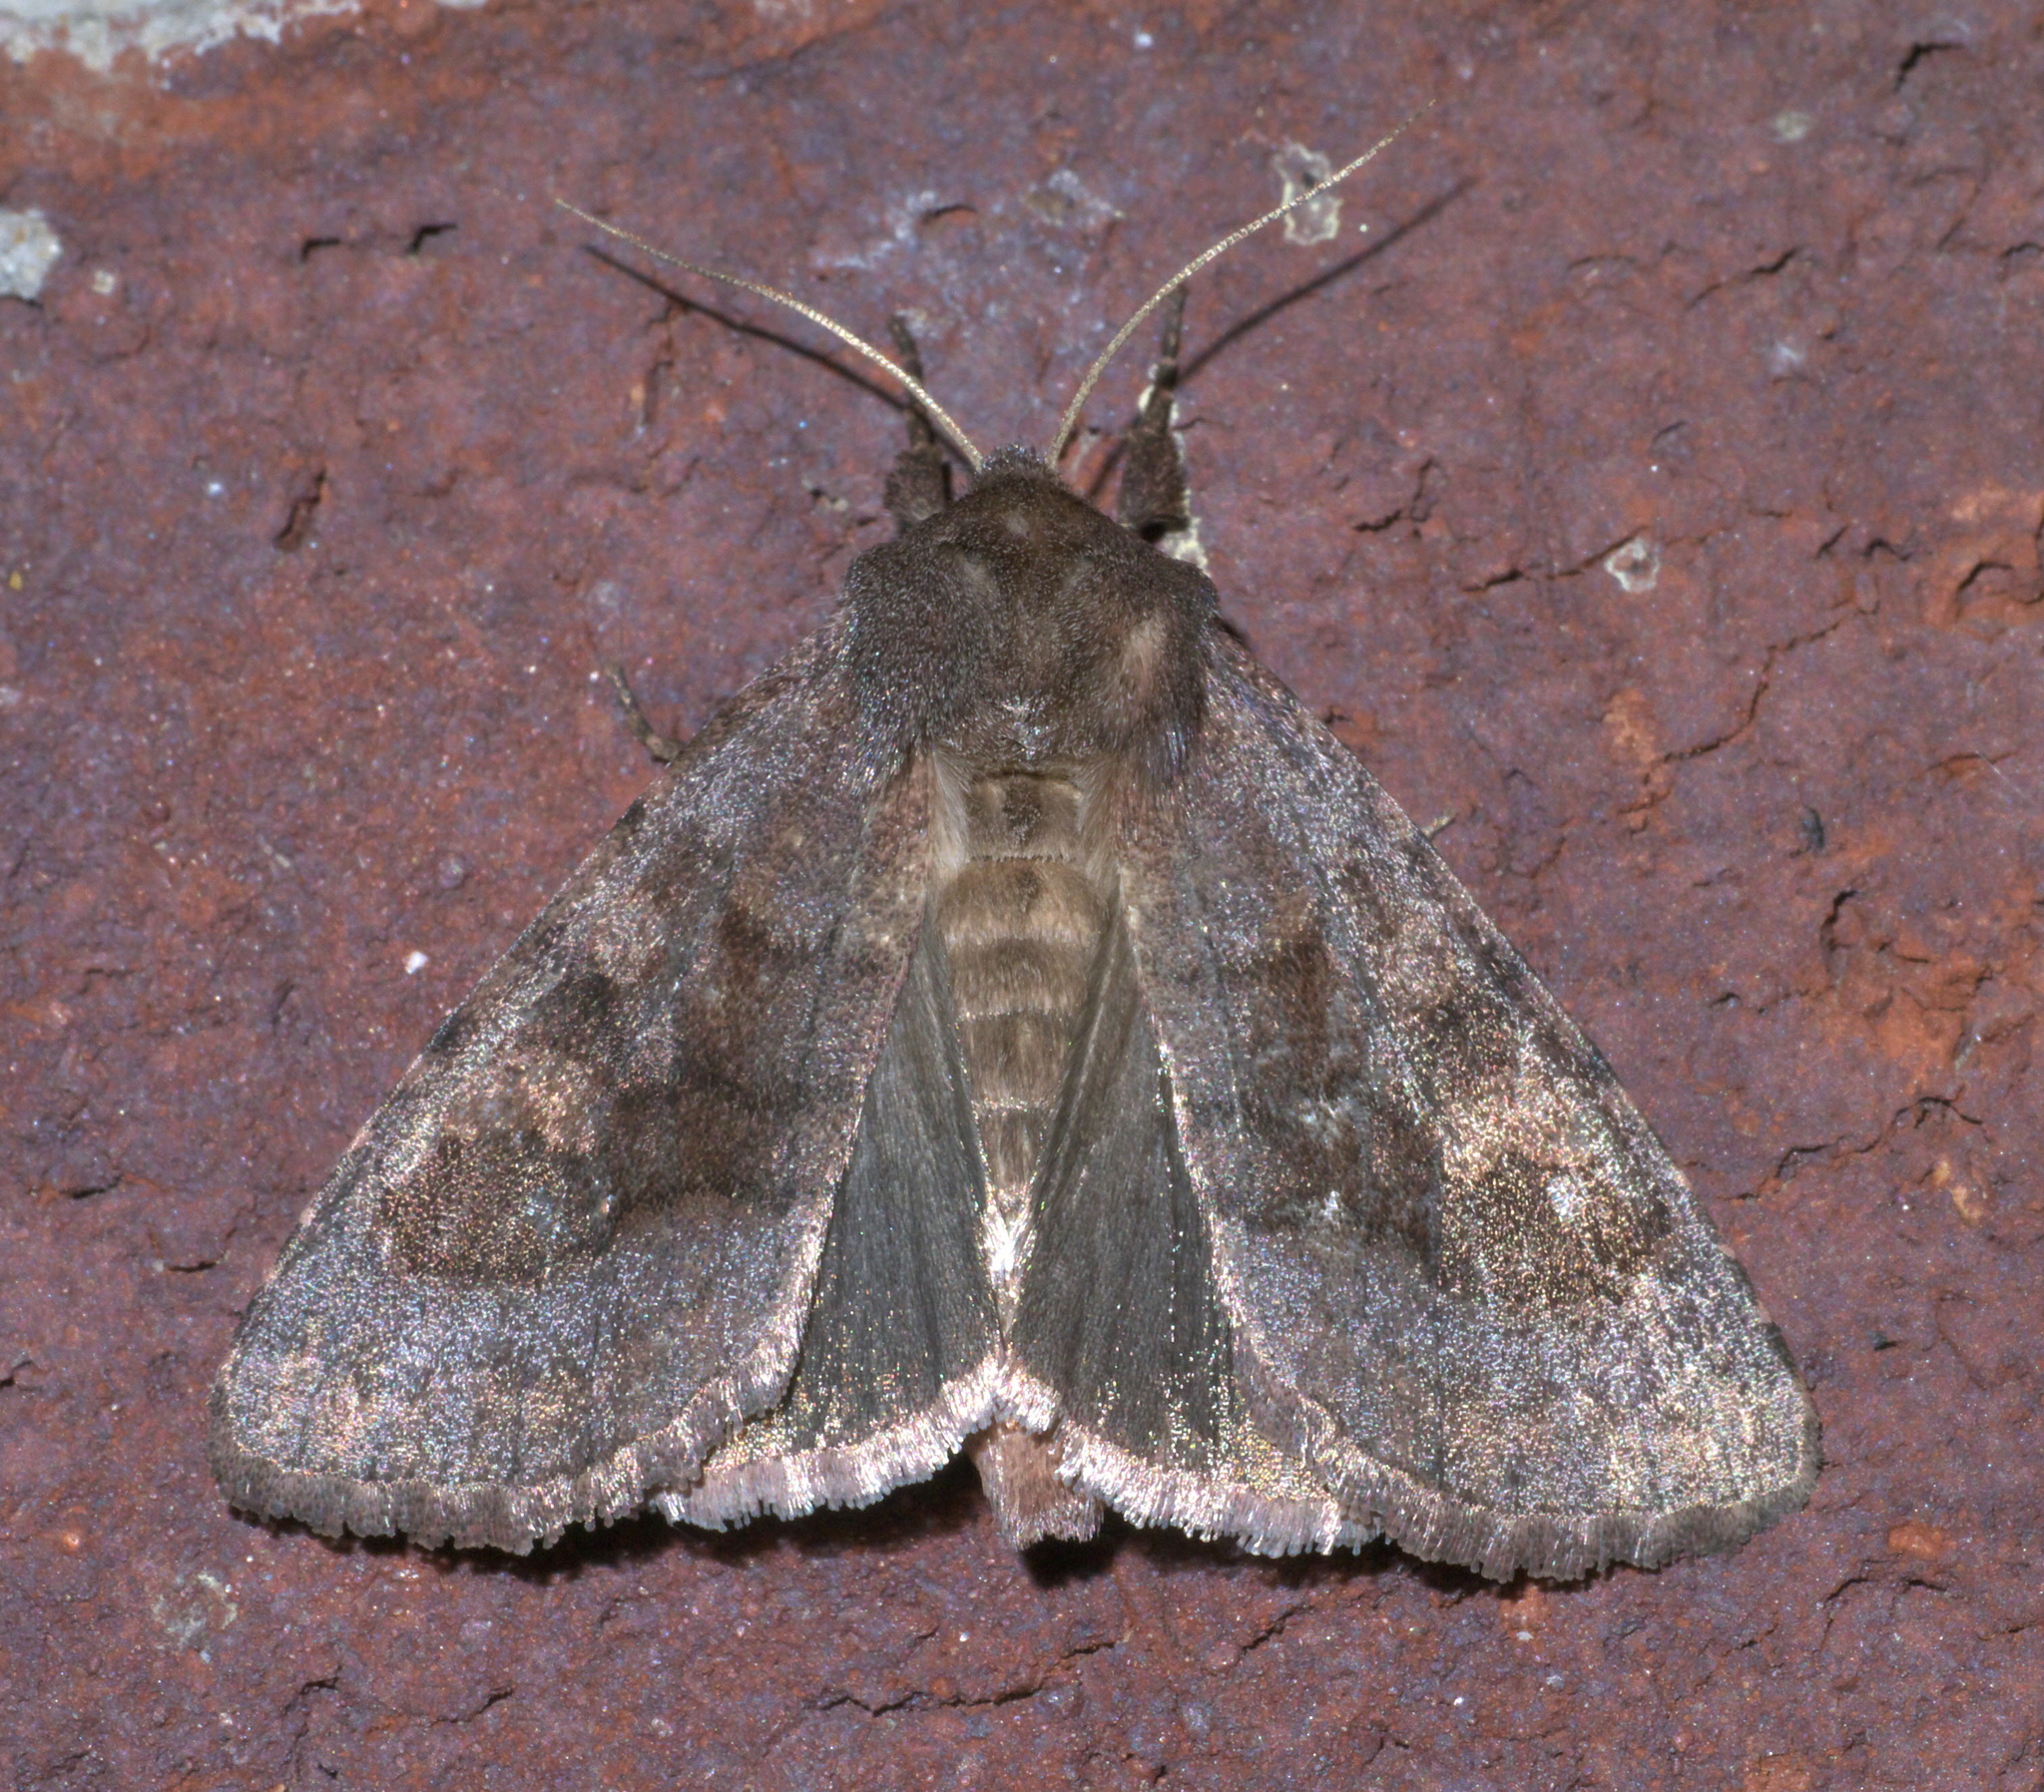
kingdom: Animalia
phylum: Arthropoda
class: Insecta
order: Lepidoptera
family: Noctuidae
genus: Nephelodes
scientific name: Nephelodes minians
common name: Bronzed cutworm
